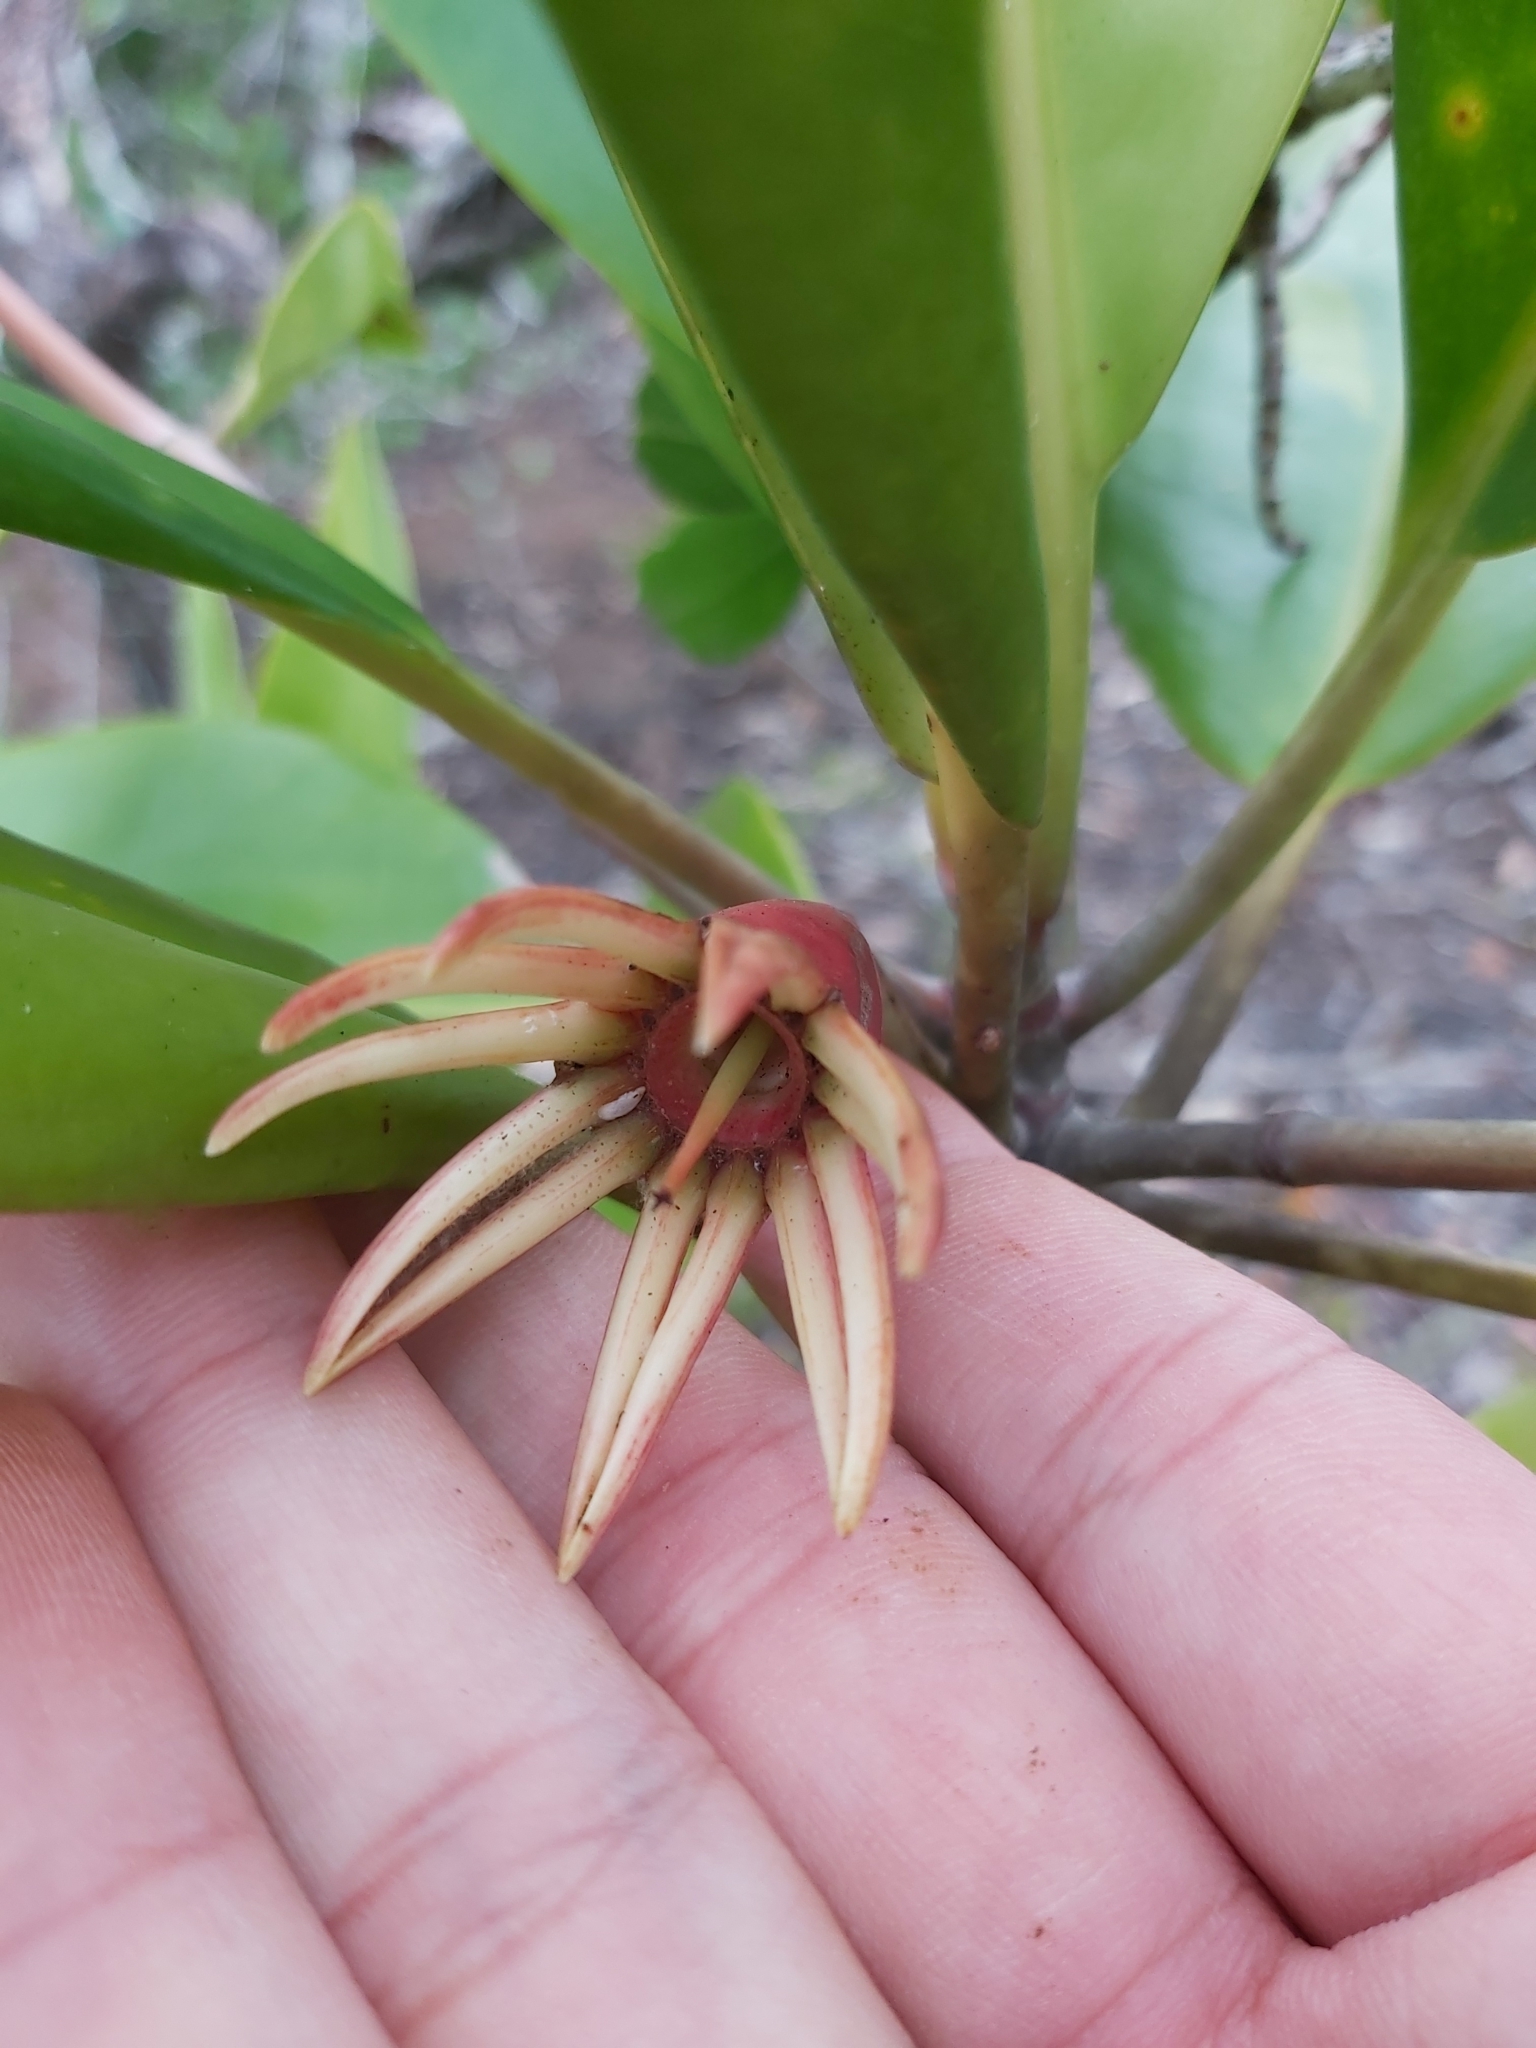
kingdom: Plantae
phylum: Tracheophyta
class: Magnoliopsida
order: Malpighiales
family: Rhizophoraceae
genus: Bruguiera
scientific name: Bruguiera gymnorhiza
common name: Oriental mangrove
